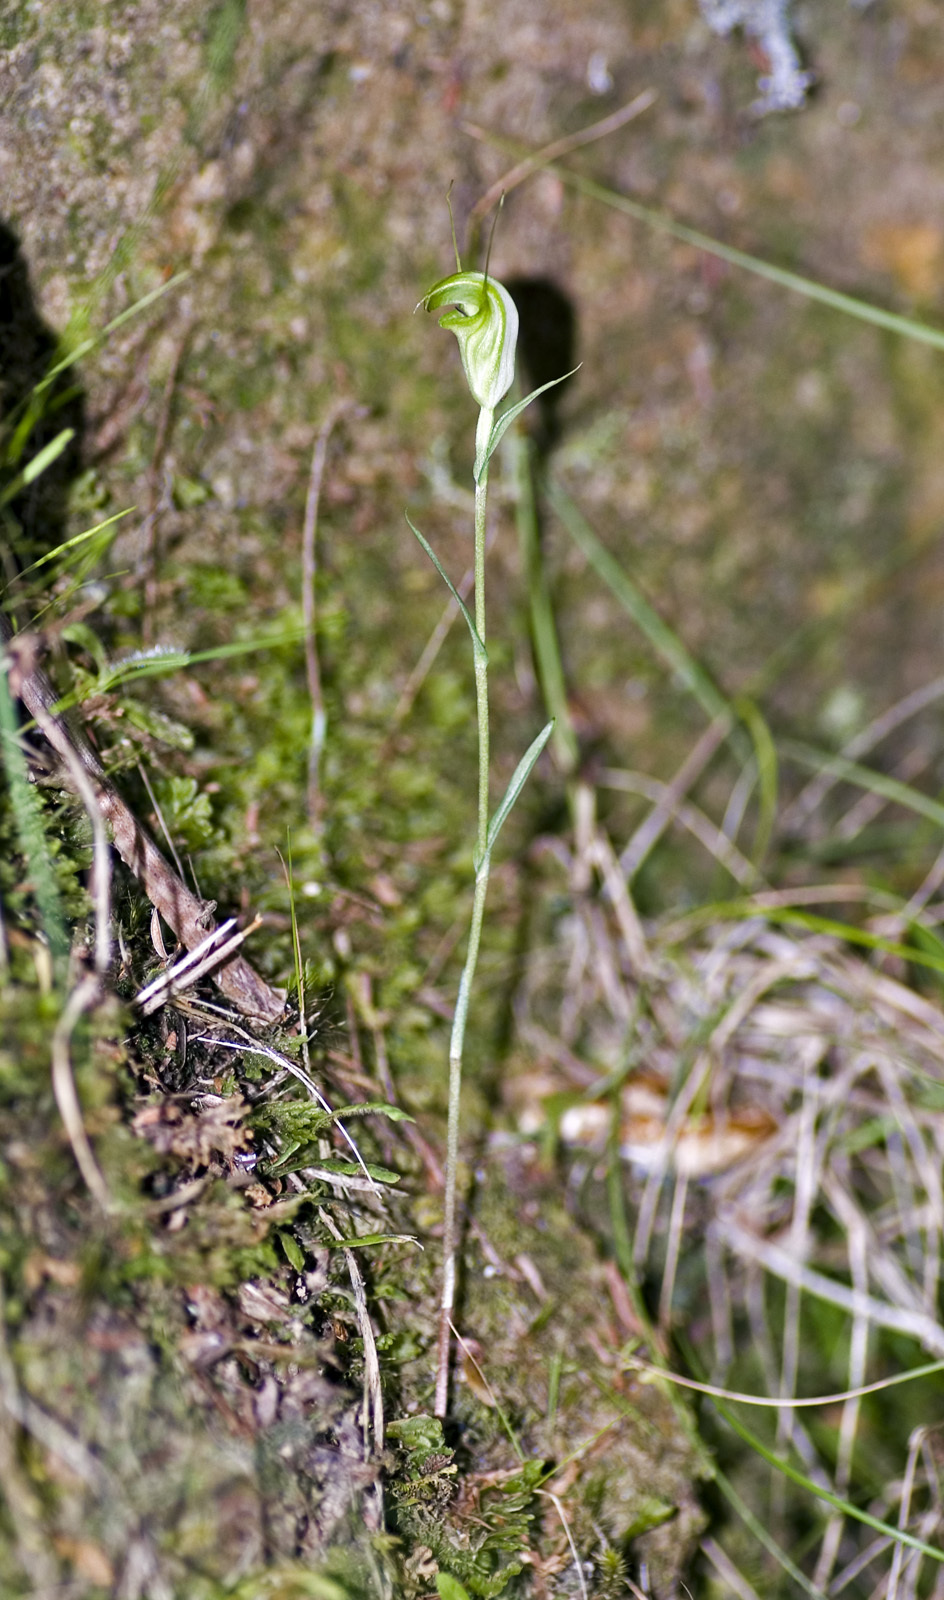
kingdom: Plantae
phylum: Tracheophyta
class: Liliopsida
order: Asparagales
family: Orchidaceae
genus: Pterostylis
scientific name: Pterostylis alveata
